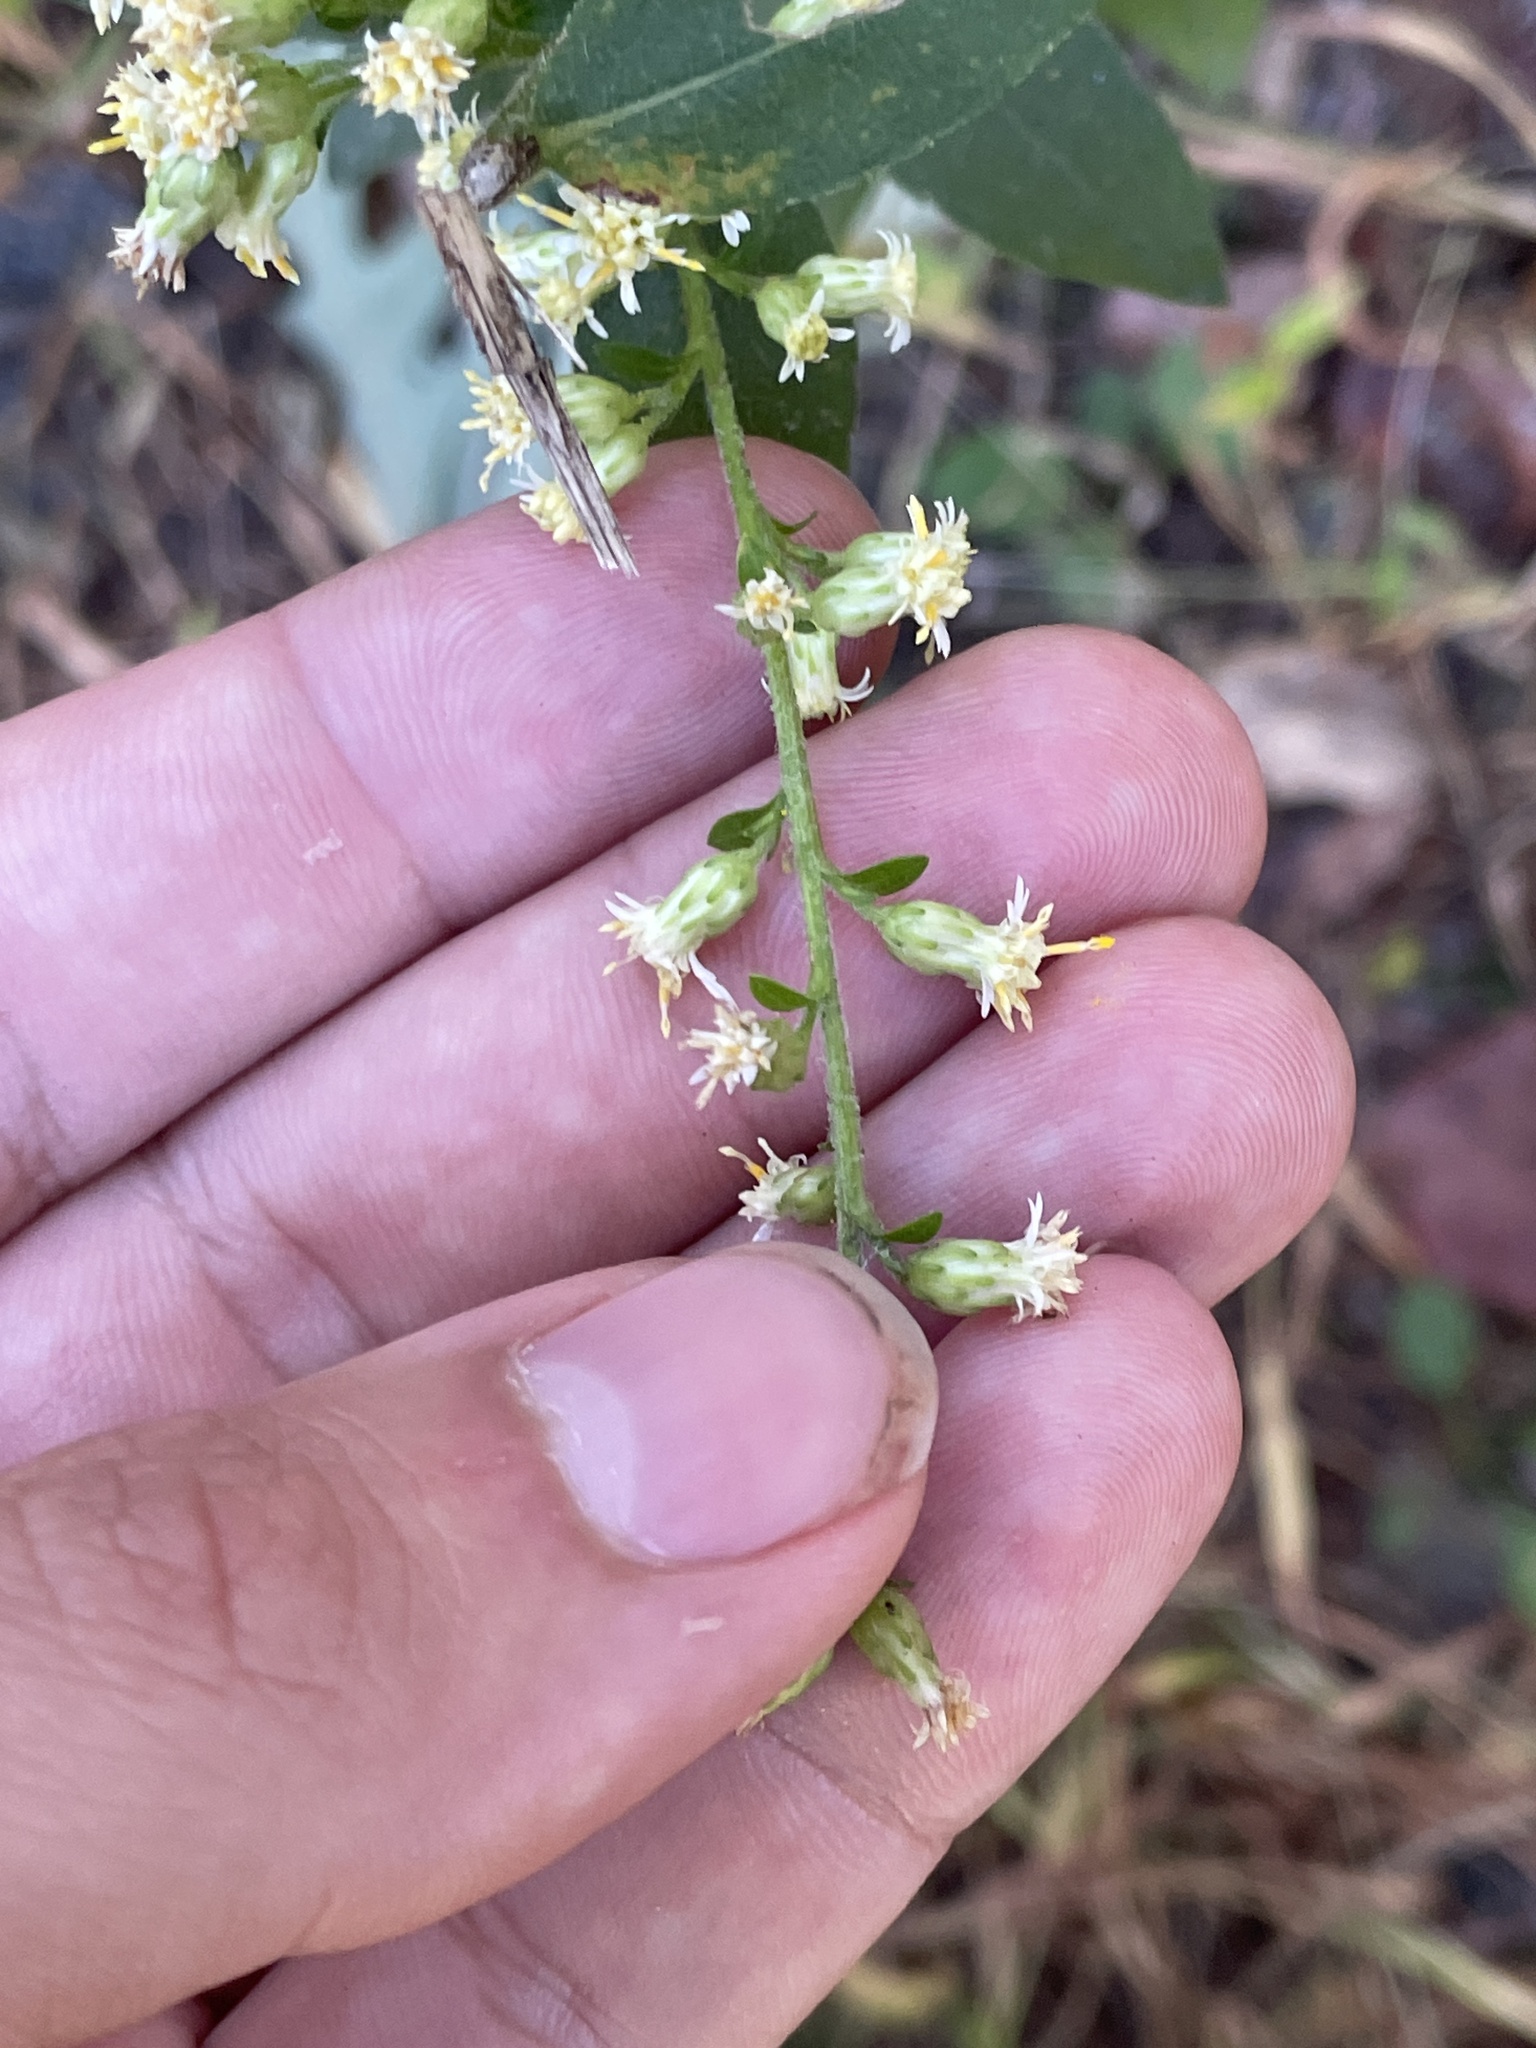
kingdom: Plantae
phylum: Tracheophyta
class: Magnoliopsida
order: Asterales
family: Asteraceae
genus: Solidago
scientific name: Solidago bicolor
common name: Silverrod
